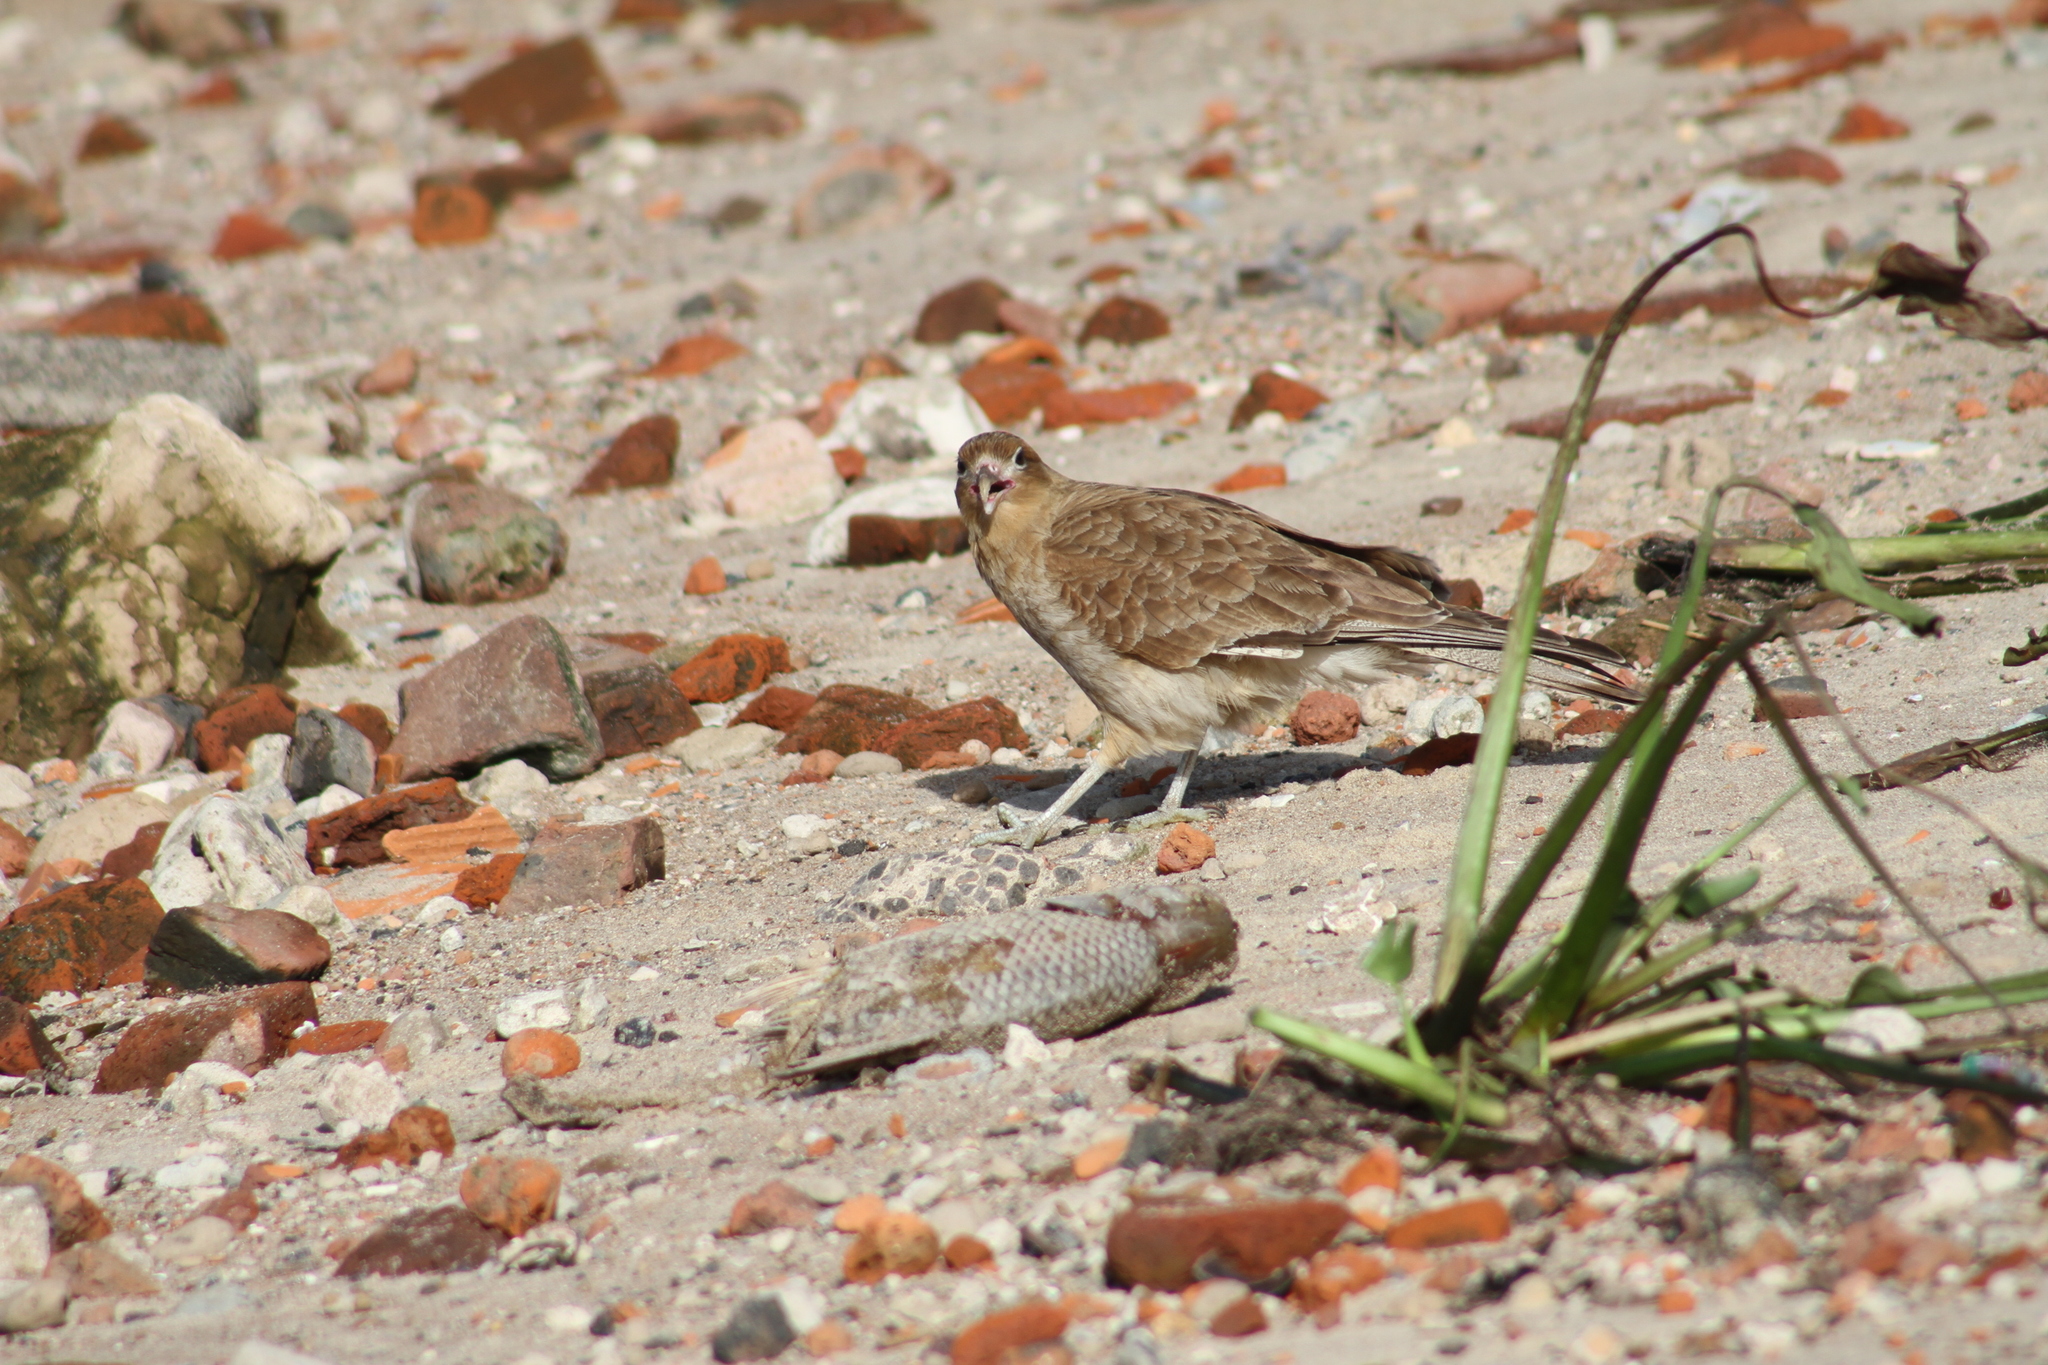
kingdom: Animalia
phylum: Chordata
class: Aves
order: Falconiformes
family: Falconidae
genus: Daptrius
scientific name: Daptrius
